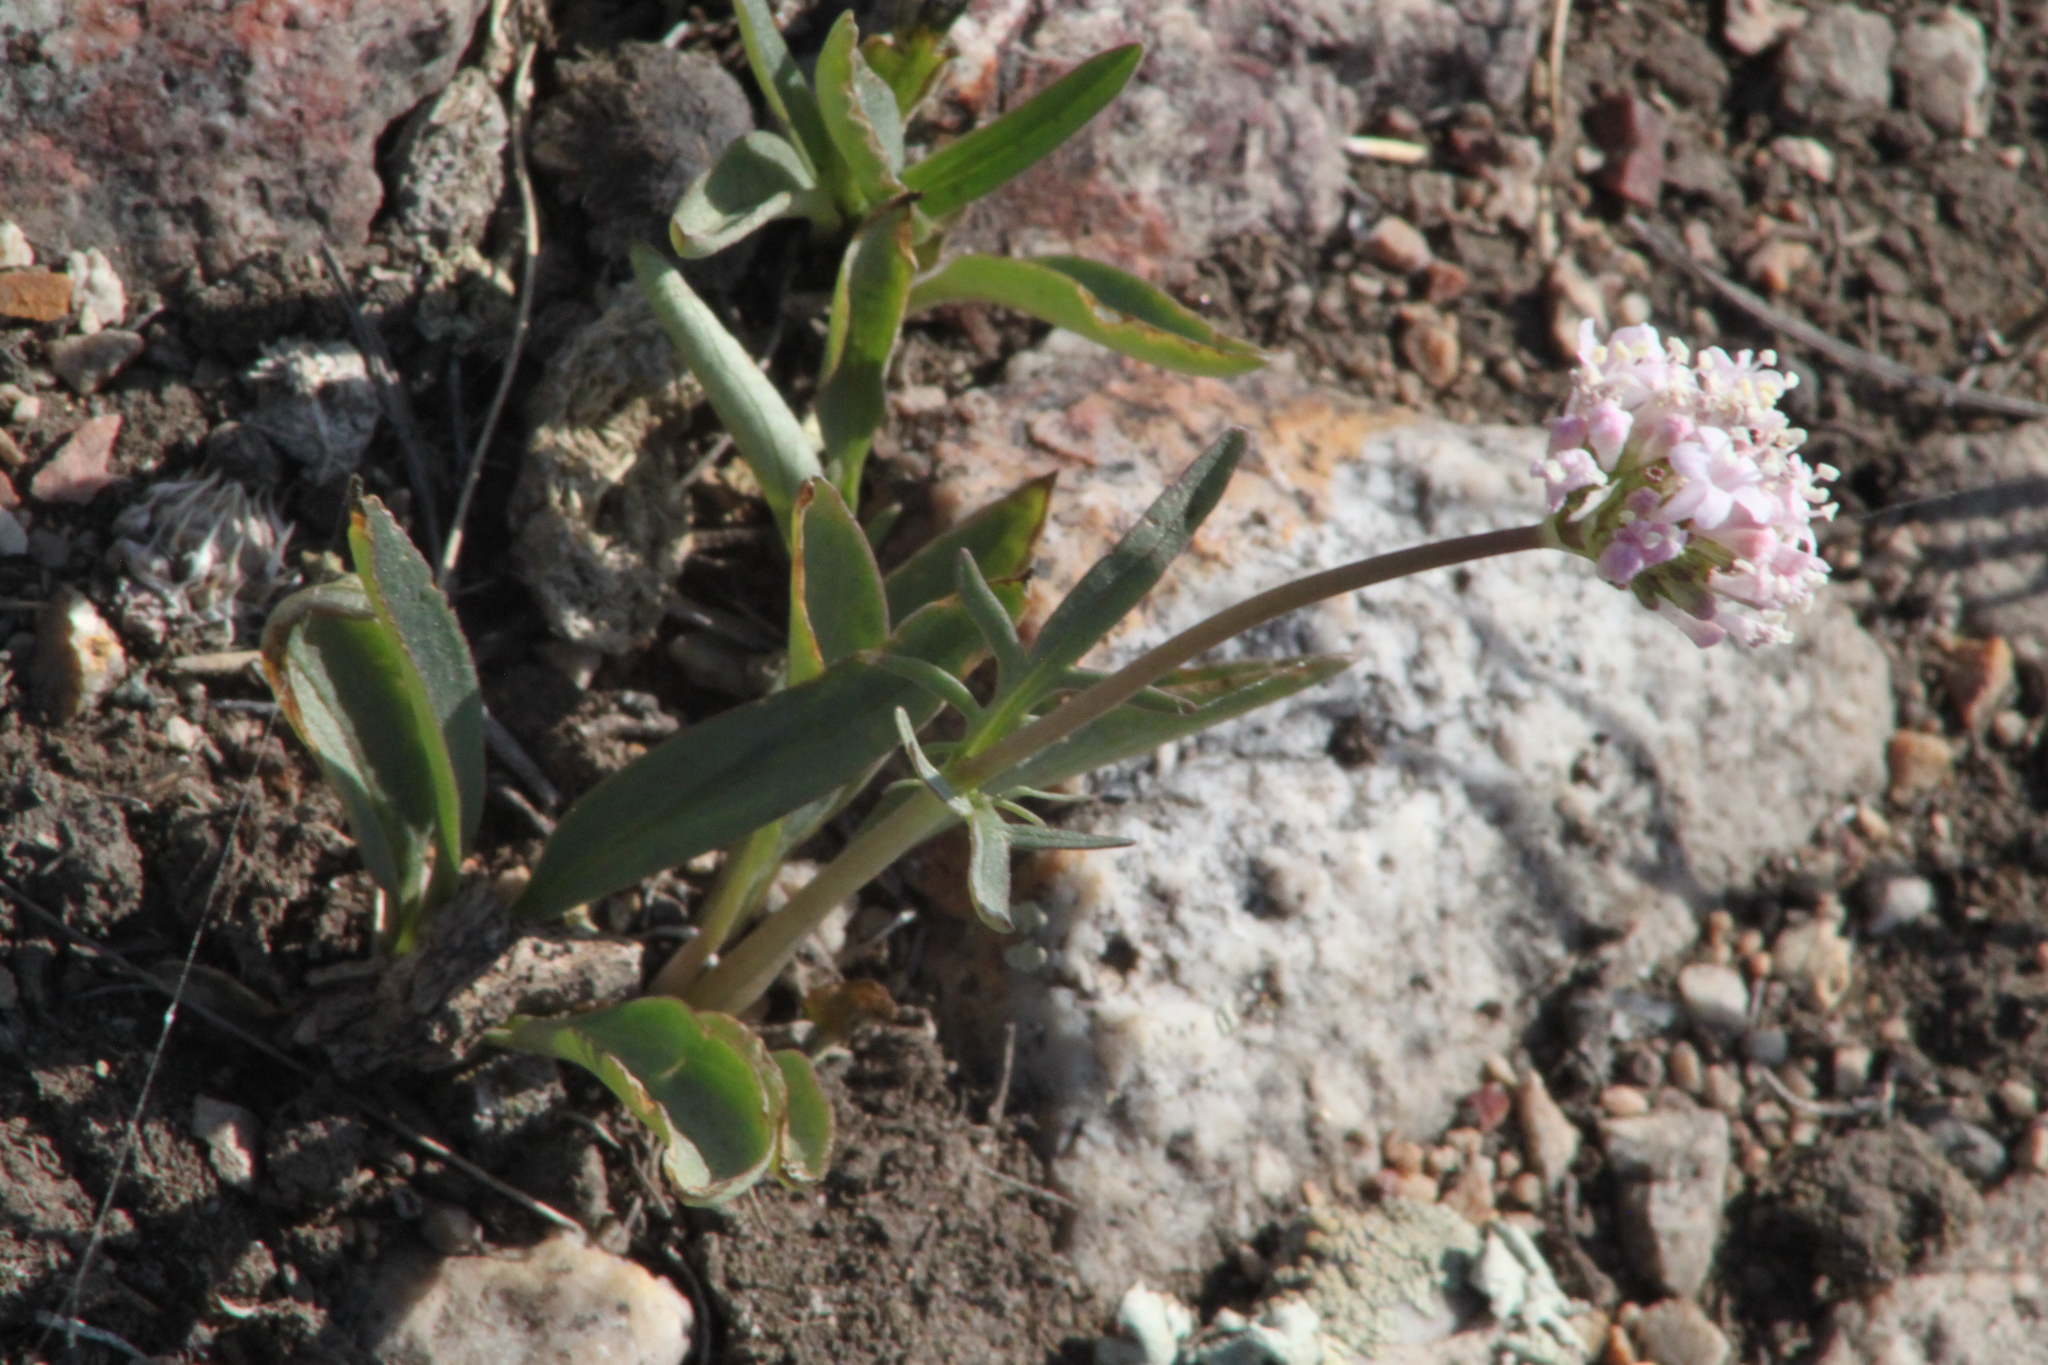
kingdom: Plantae
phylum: Tracheophyta
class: Magnoliopsida
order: Dipsacales
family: Caprifoliaceae
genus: Valeriana
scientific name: Valeriana tuberosa
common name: Tuberous valerian
